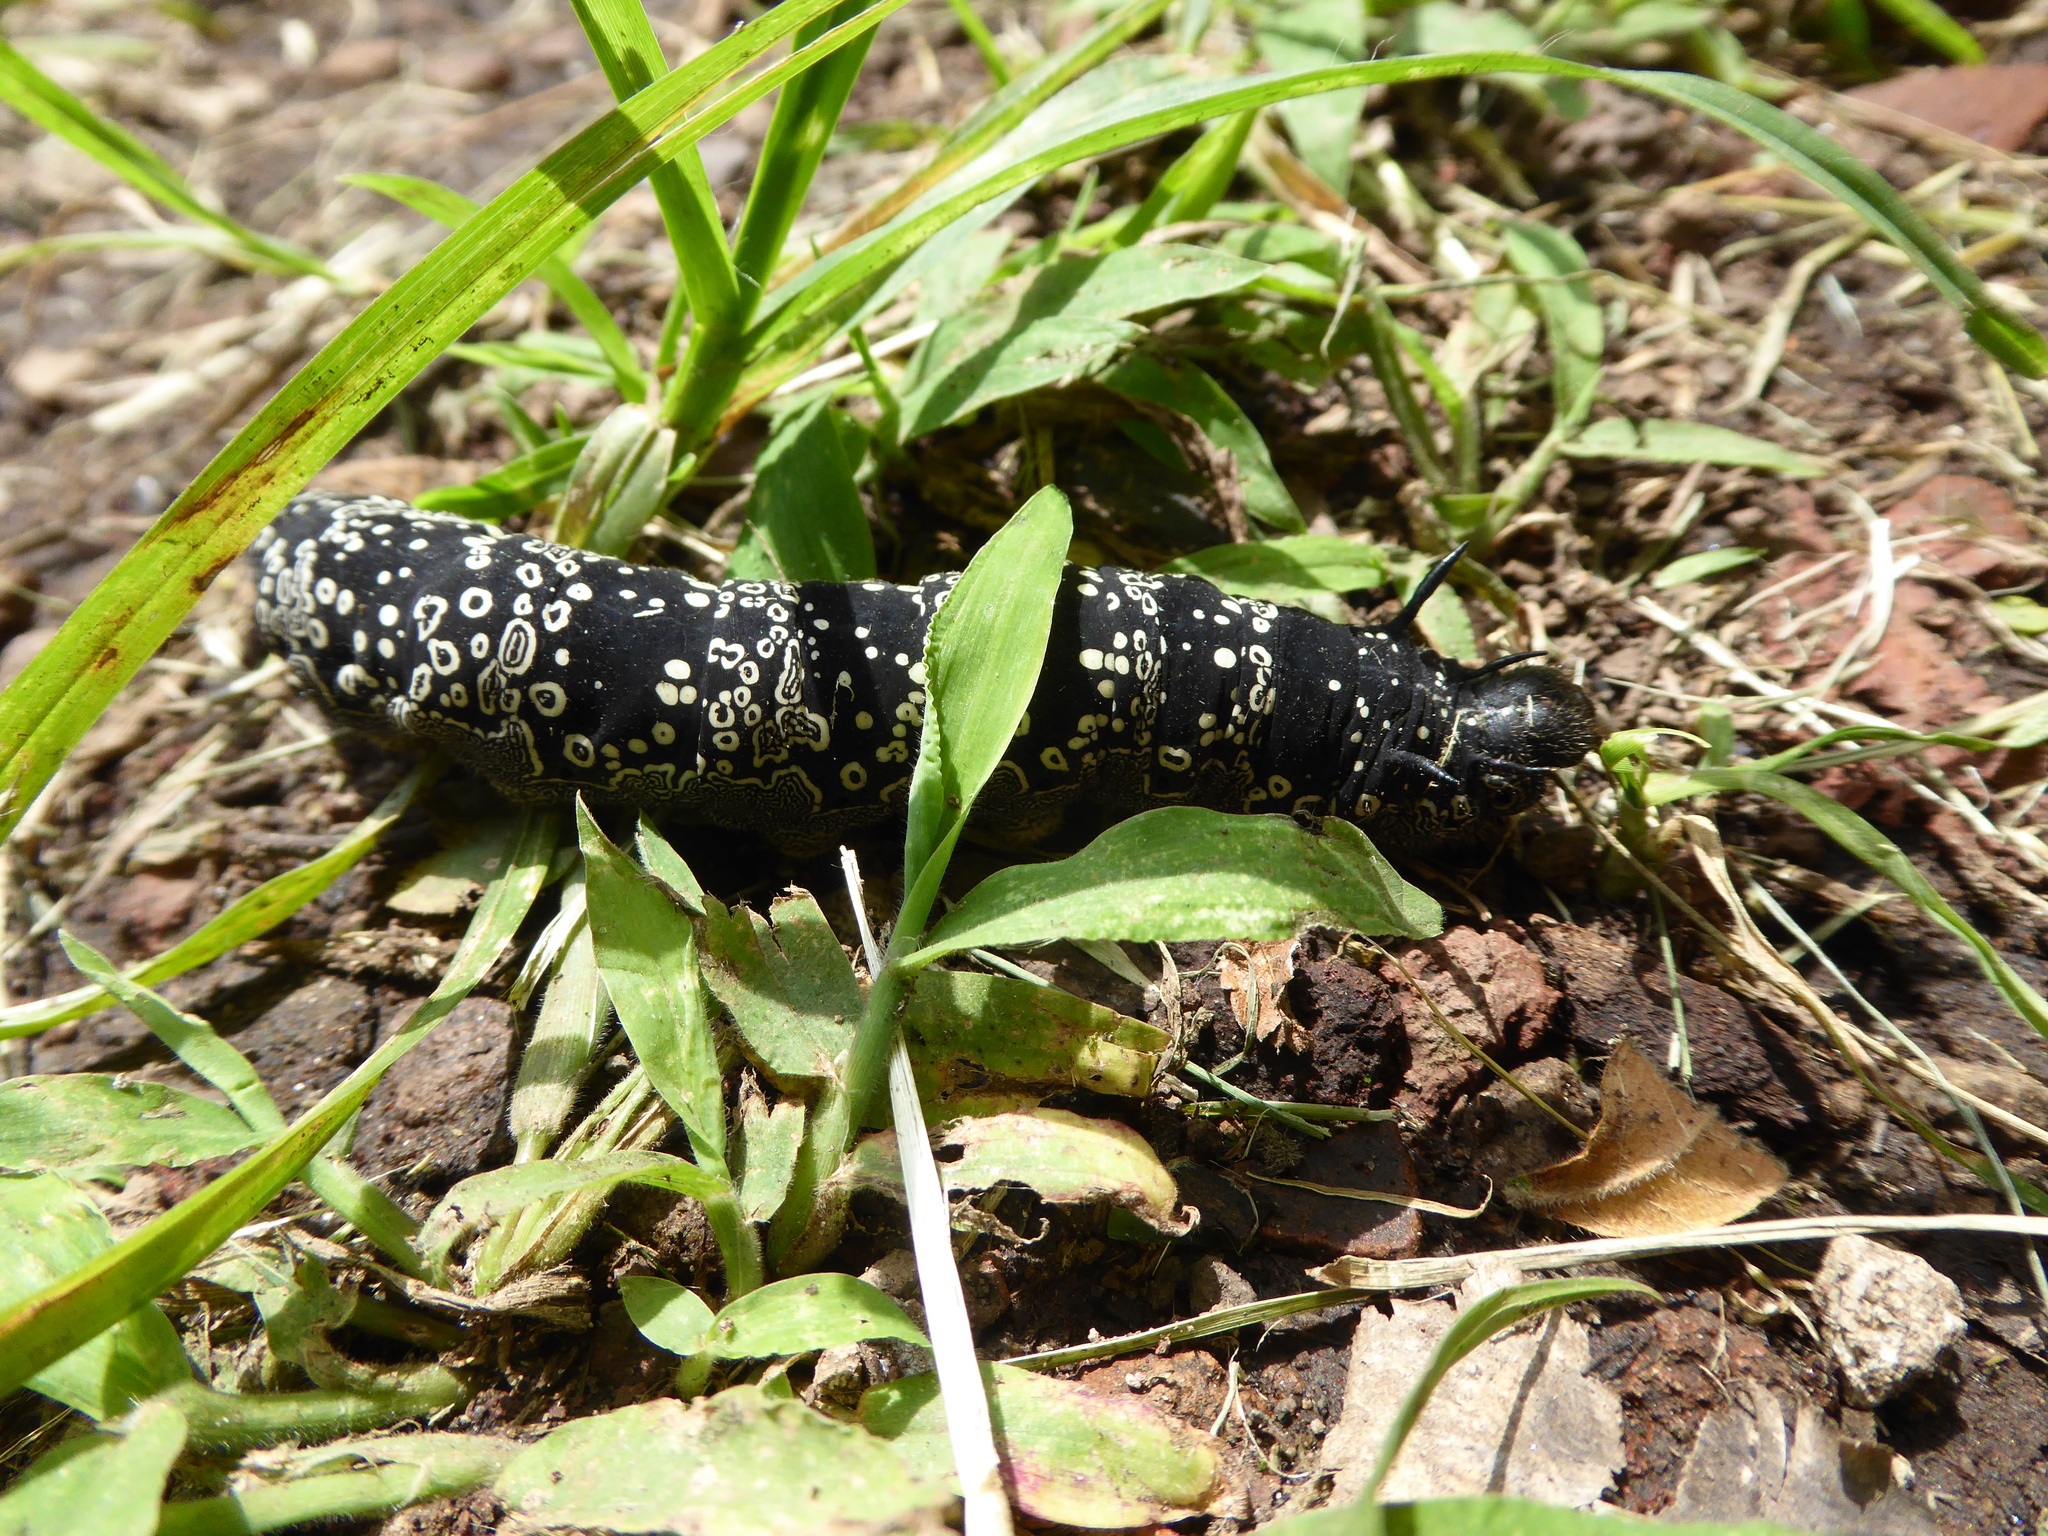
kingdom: Animalia
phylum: Arthropoda
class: Insecta
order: Lepidoptera
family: Saturniidae
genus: Arsenura
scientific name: Arsenura polyodonta
